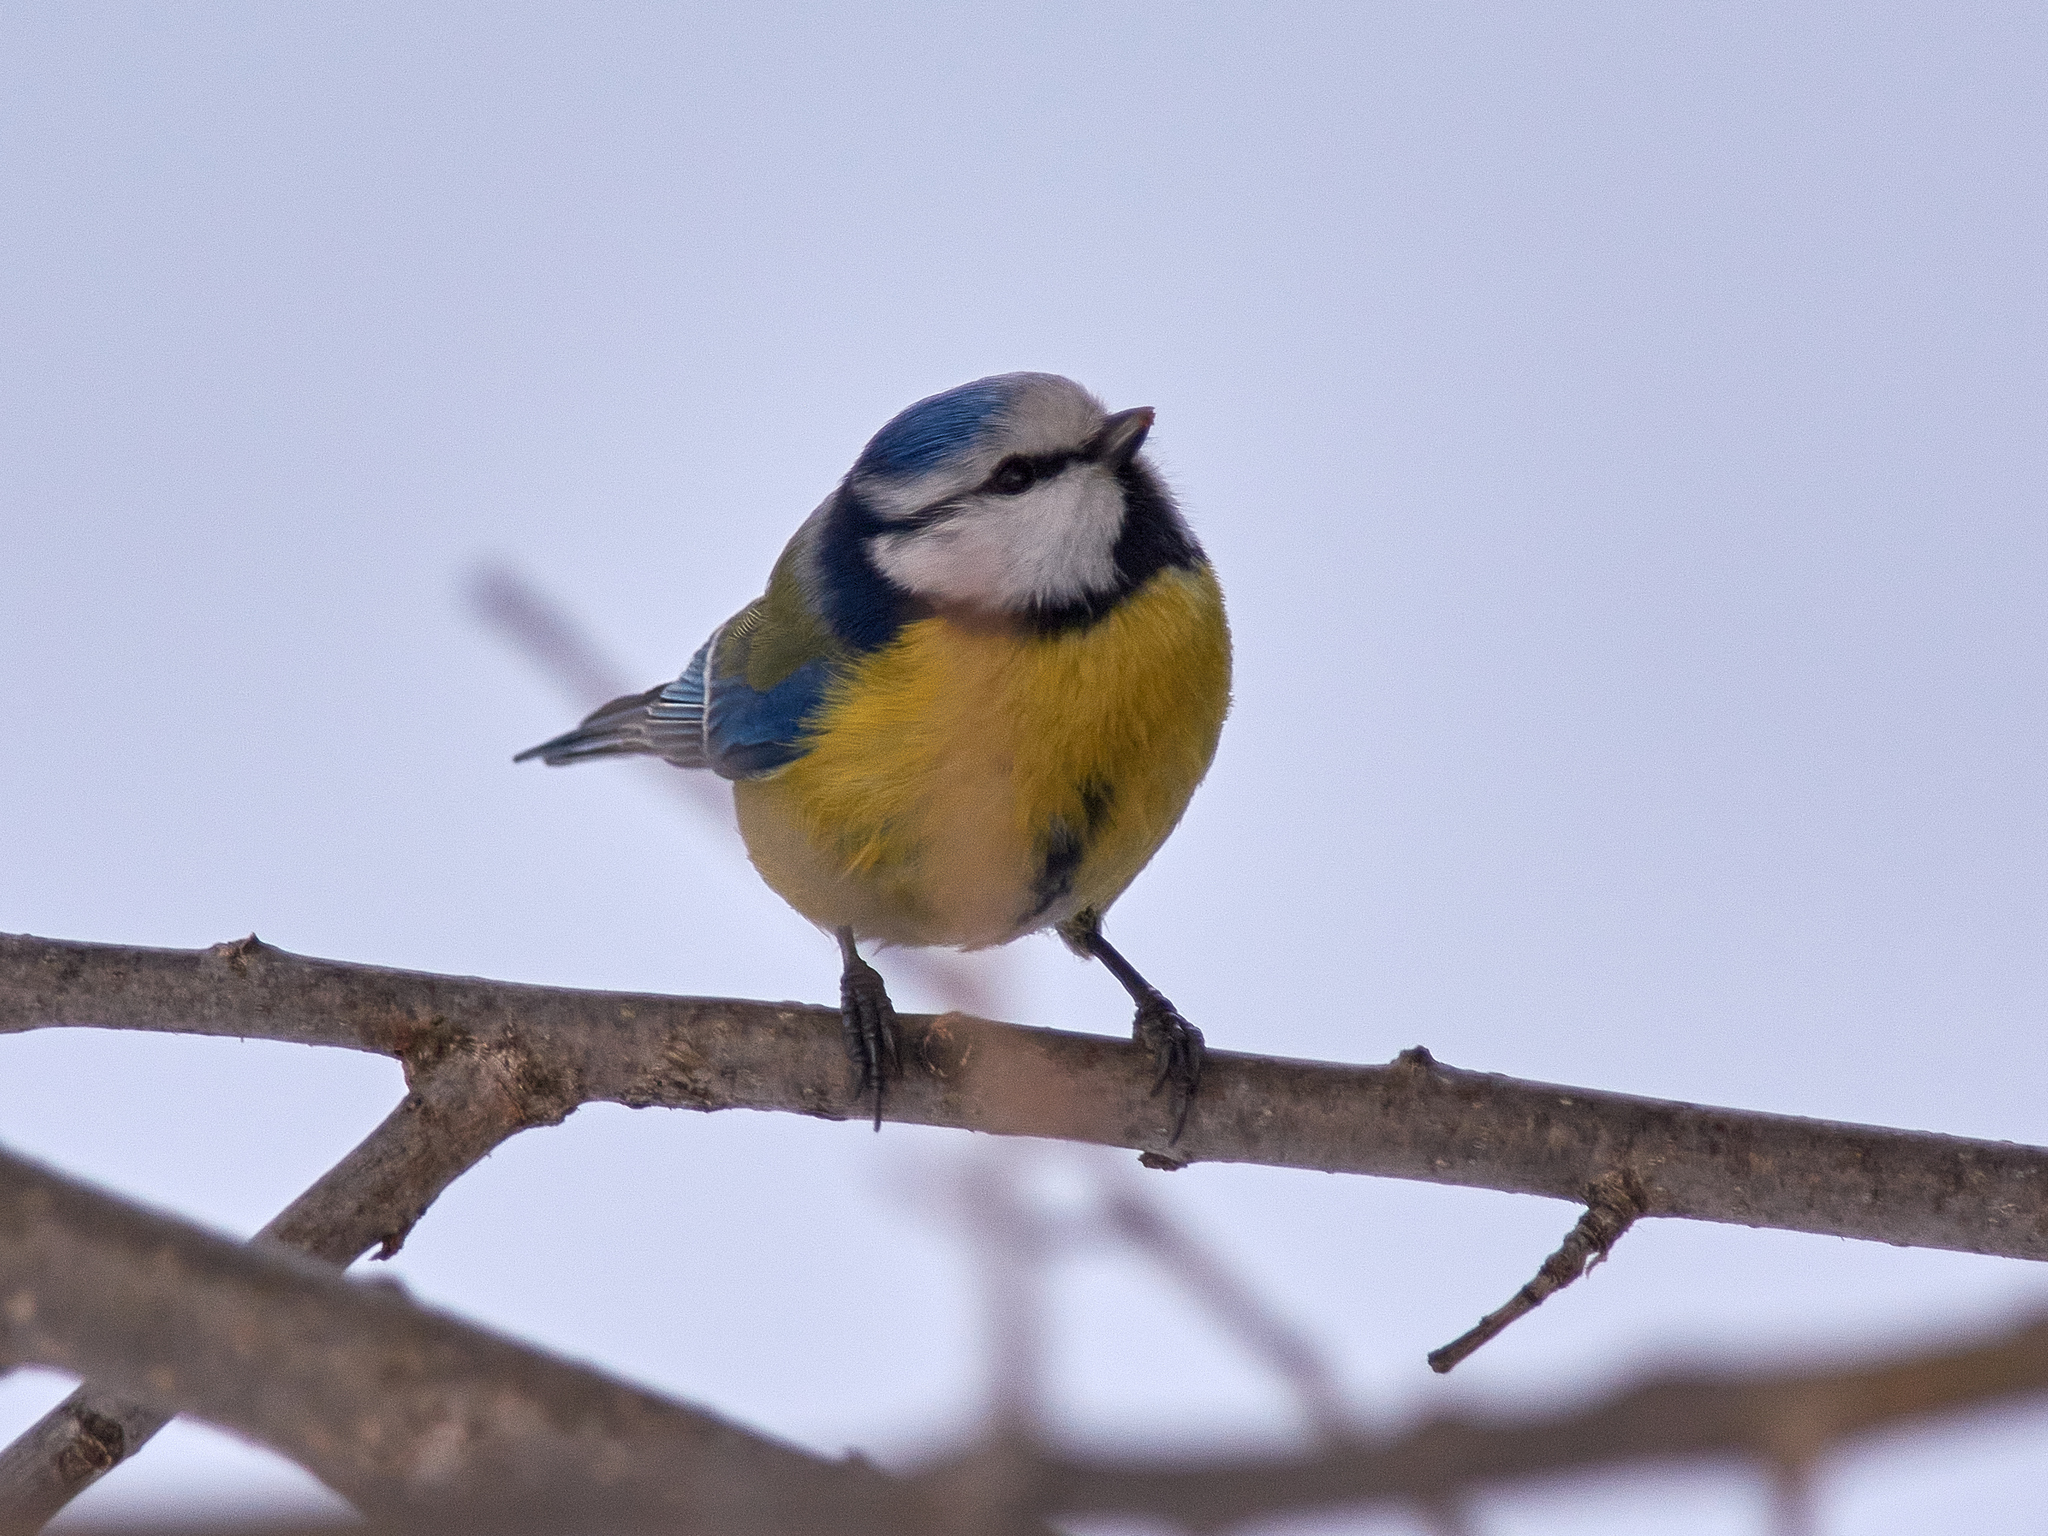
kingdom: Animalia
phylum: Chordata
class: Aves
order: Passeriformes
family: Paridae
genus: Cyanistes
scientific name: Cyanistes caeruleus
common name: Eurasian blue tit
